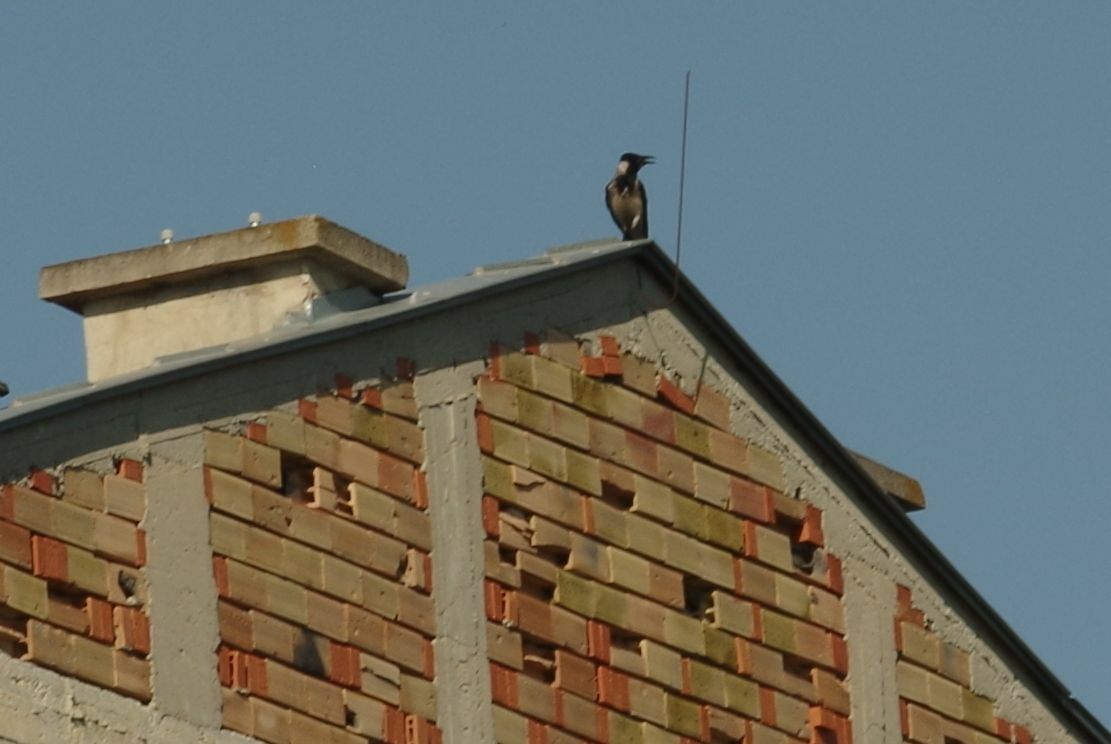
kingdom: Animalia
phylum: Chordata
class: Aves
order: Passeriformes
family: Corvidae
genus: Corvus
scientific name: Corvus cornix
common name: Hooded crow
